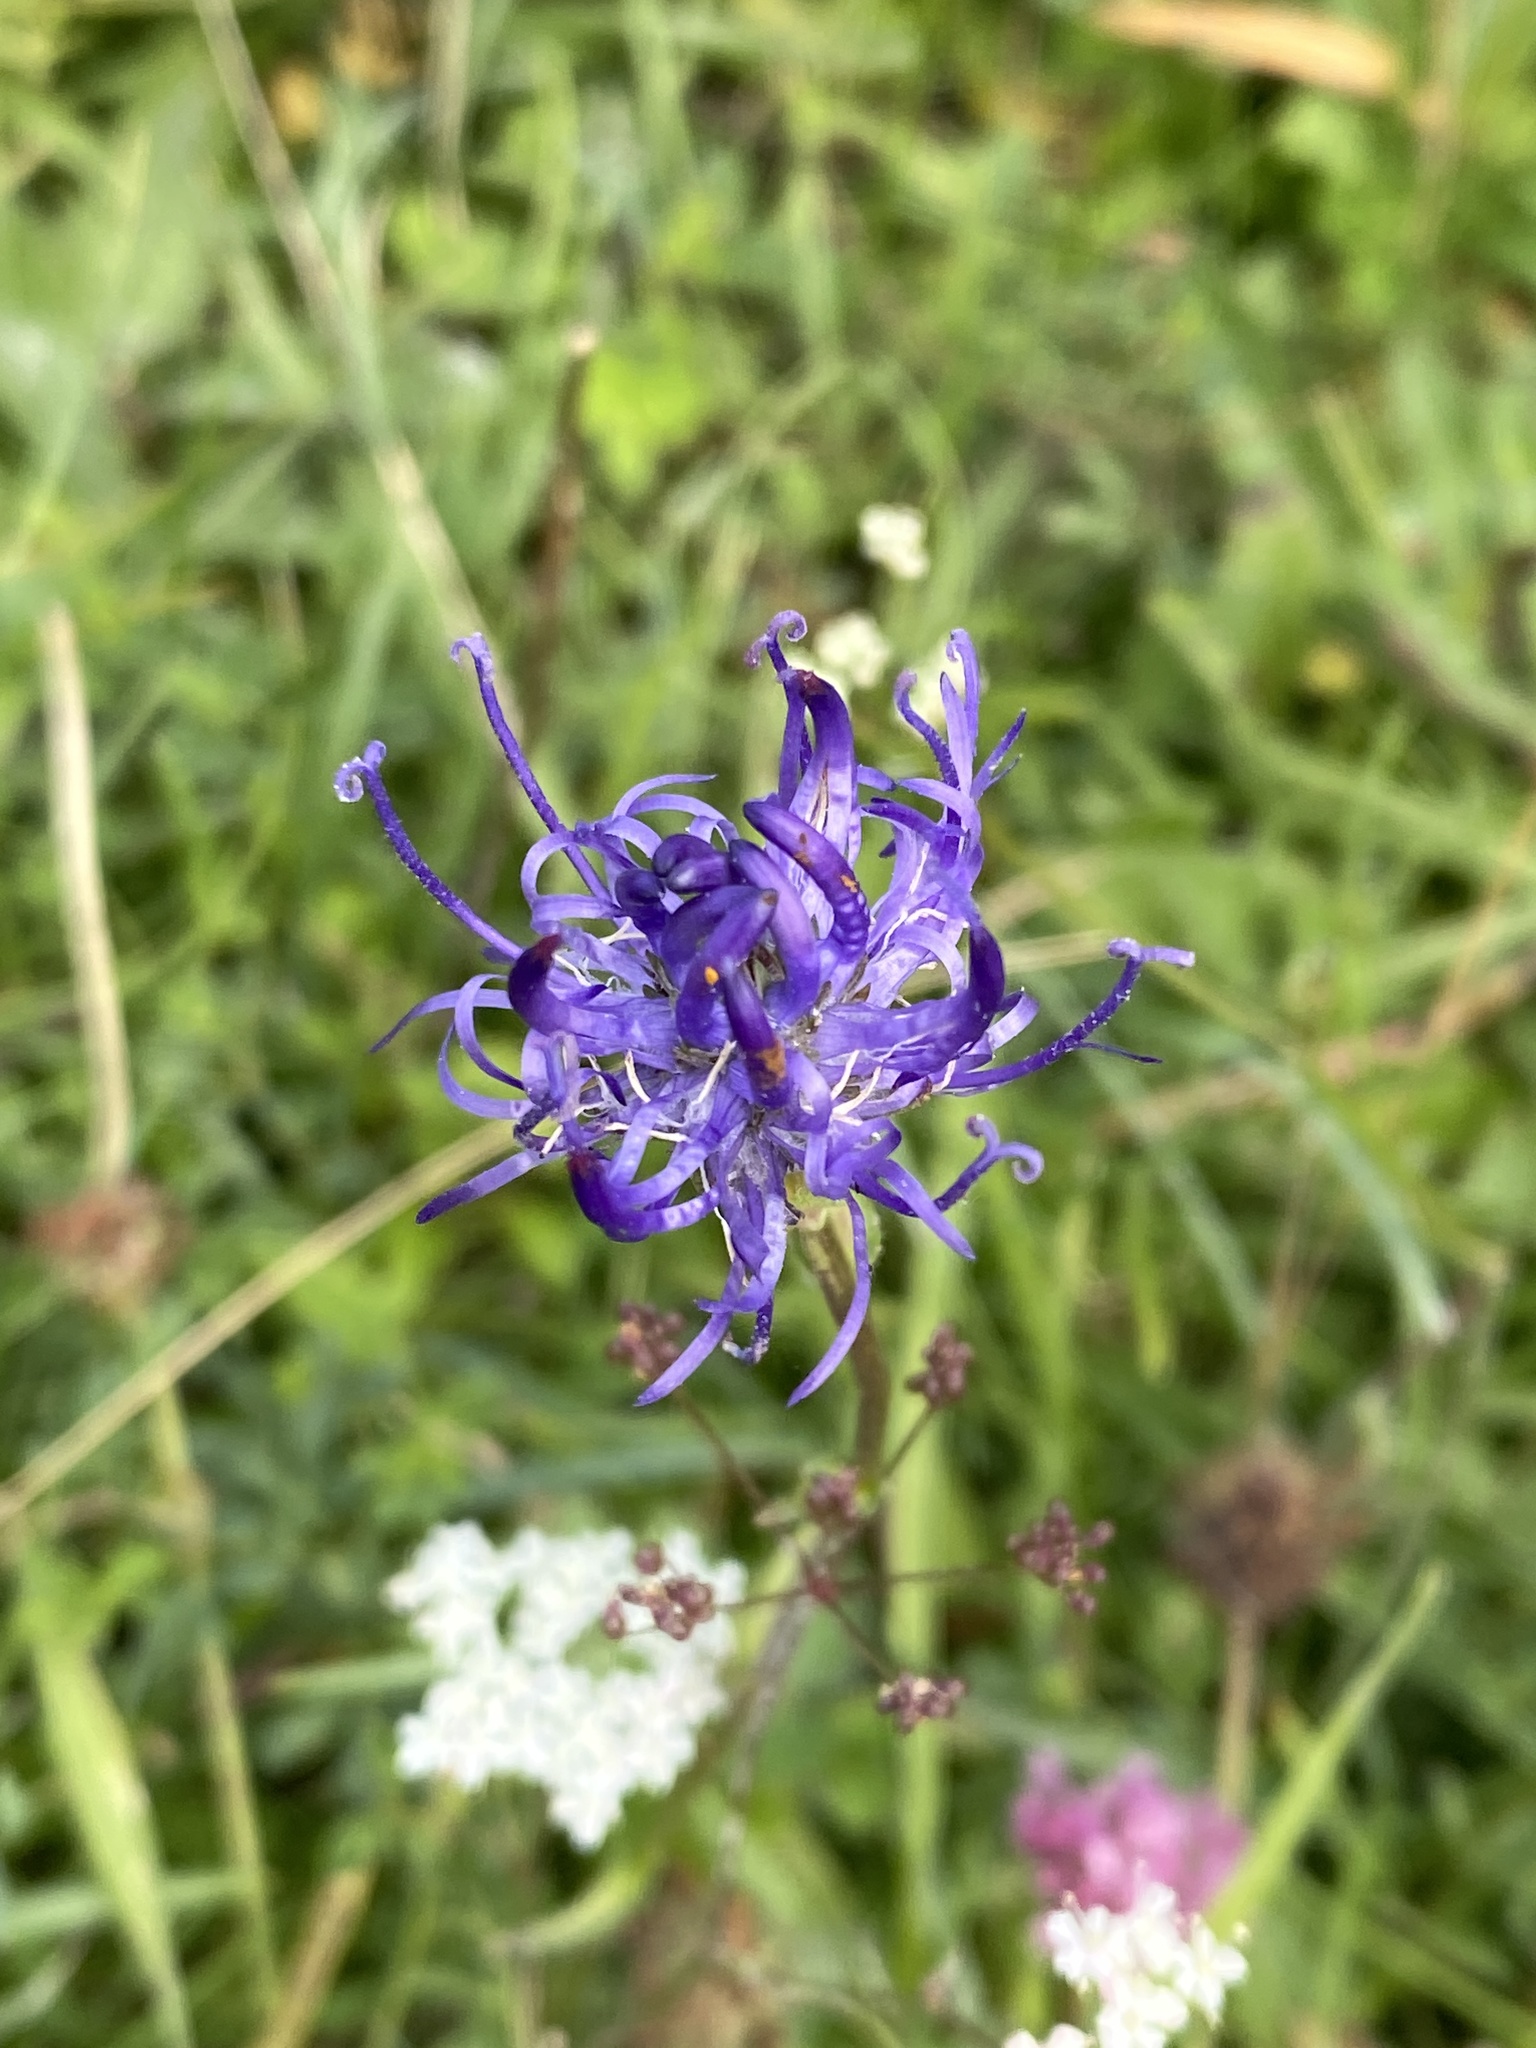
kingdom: Plantae
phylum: Tracheophyta
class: Magnoliopsida
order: Asterales
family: Campanulaceae
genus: Phyteuma
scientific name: Phyteuma orbiculare
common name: Round-headed rampion
